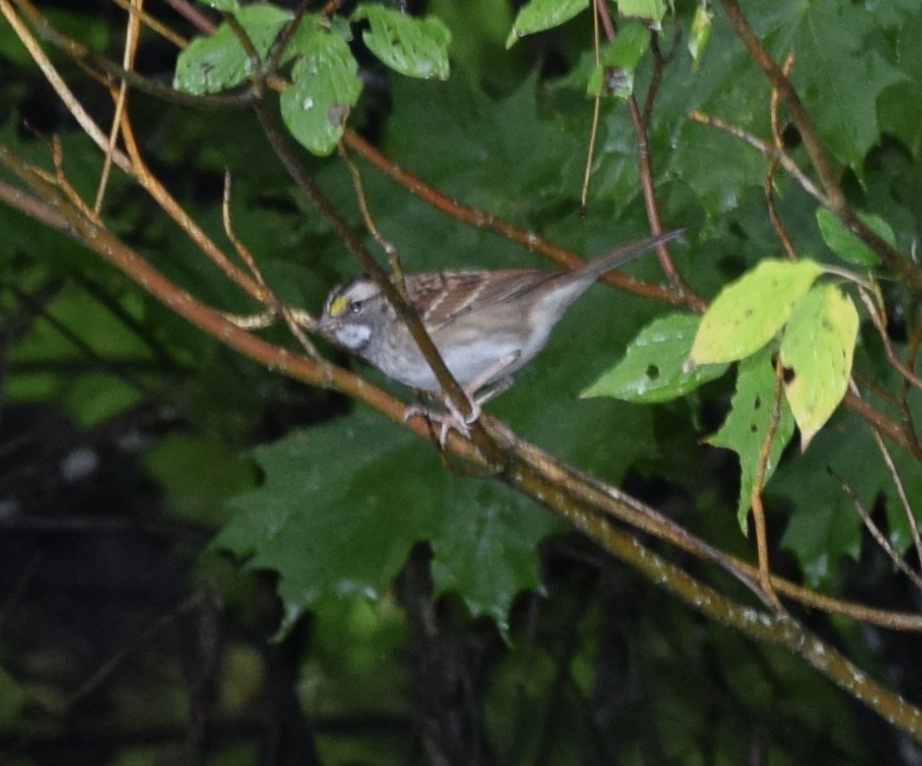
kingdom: Animalia
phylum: Chordata
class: Aves
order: Passeriformes
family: Passerellidae
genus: Zonotrichia
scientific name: Zonotrichia albicollis
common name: White-throated sparrow
